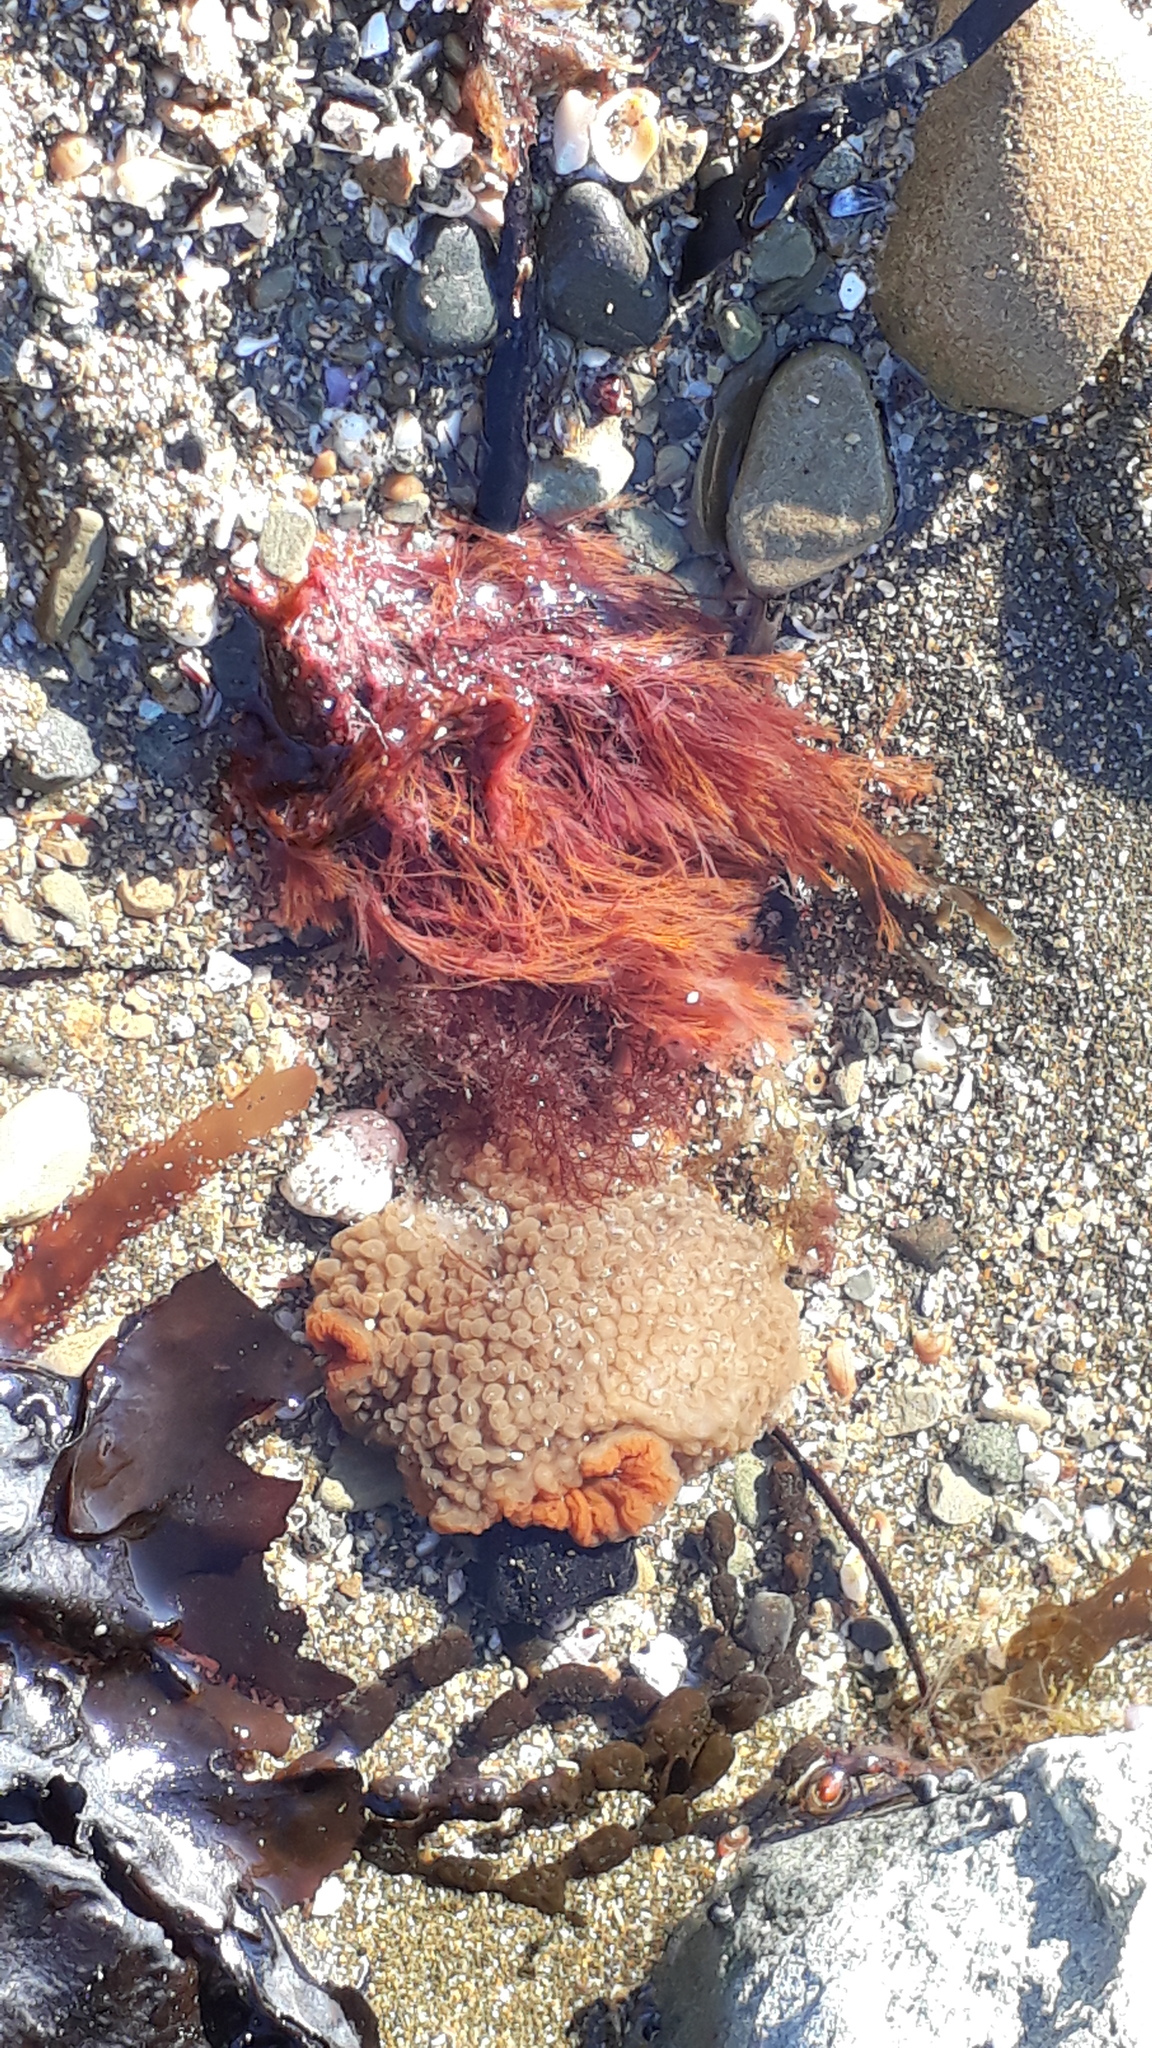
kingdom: Animalia
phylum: Cnidaria
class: Anthozoa
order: Actiniaria
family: Actiniidae
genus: Phlyctenactis
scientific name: Phlyctenactis tuberculosa
